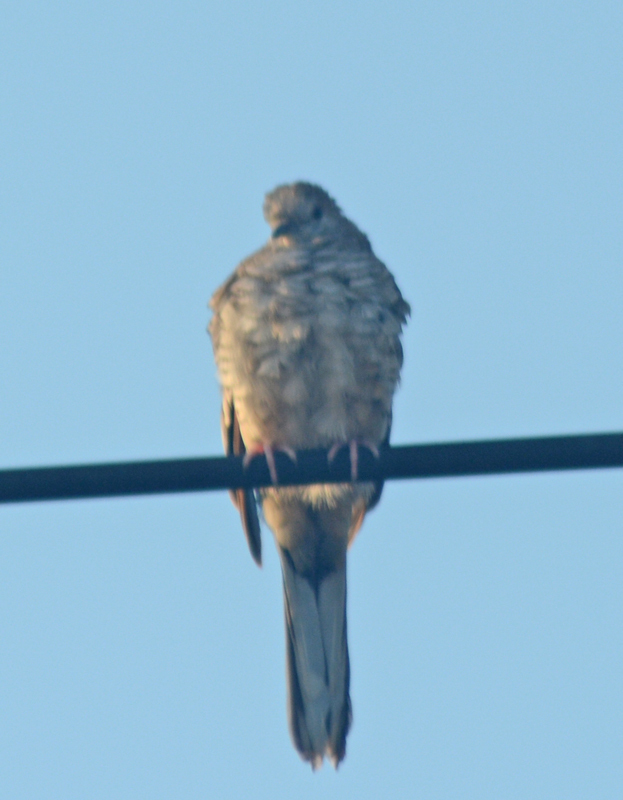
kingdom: Animalia
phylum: Chordata
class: Aves
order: Columbiformes
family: Columbidae
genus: Columbina
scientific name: Columbina inca
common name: Inca dove
